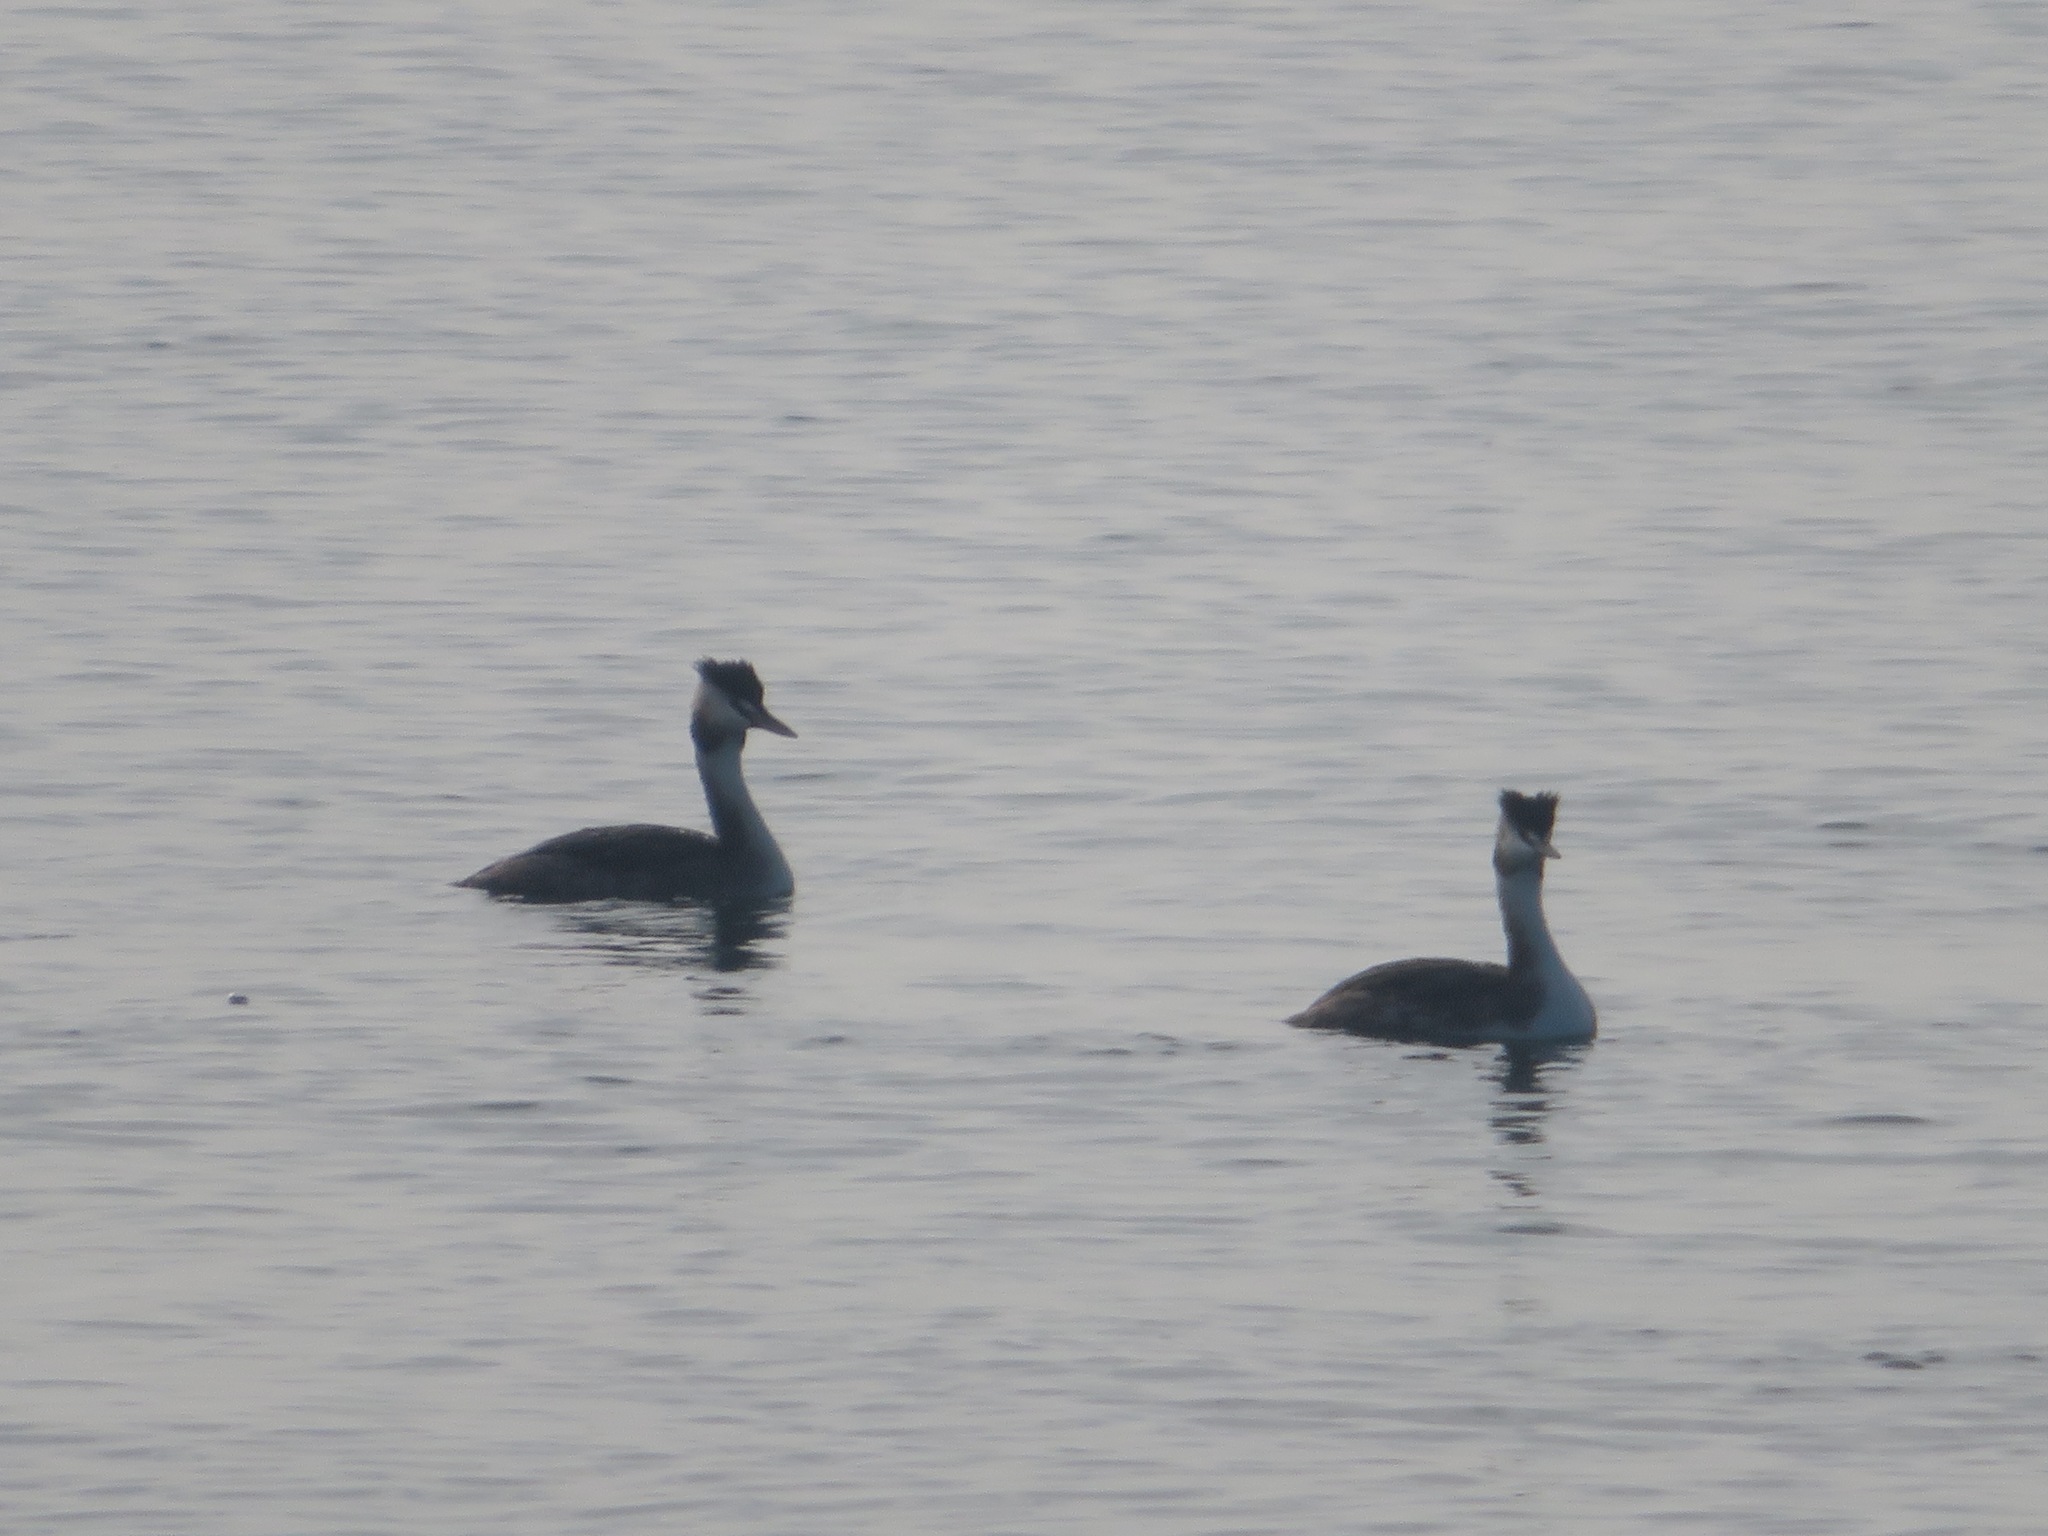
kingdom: Animalia
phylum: Chordata
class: Aves
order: Podicipediformes
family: Podicipedidae
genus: Podiceps
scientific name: Podiceps cristatus
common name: Great crested grebe
